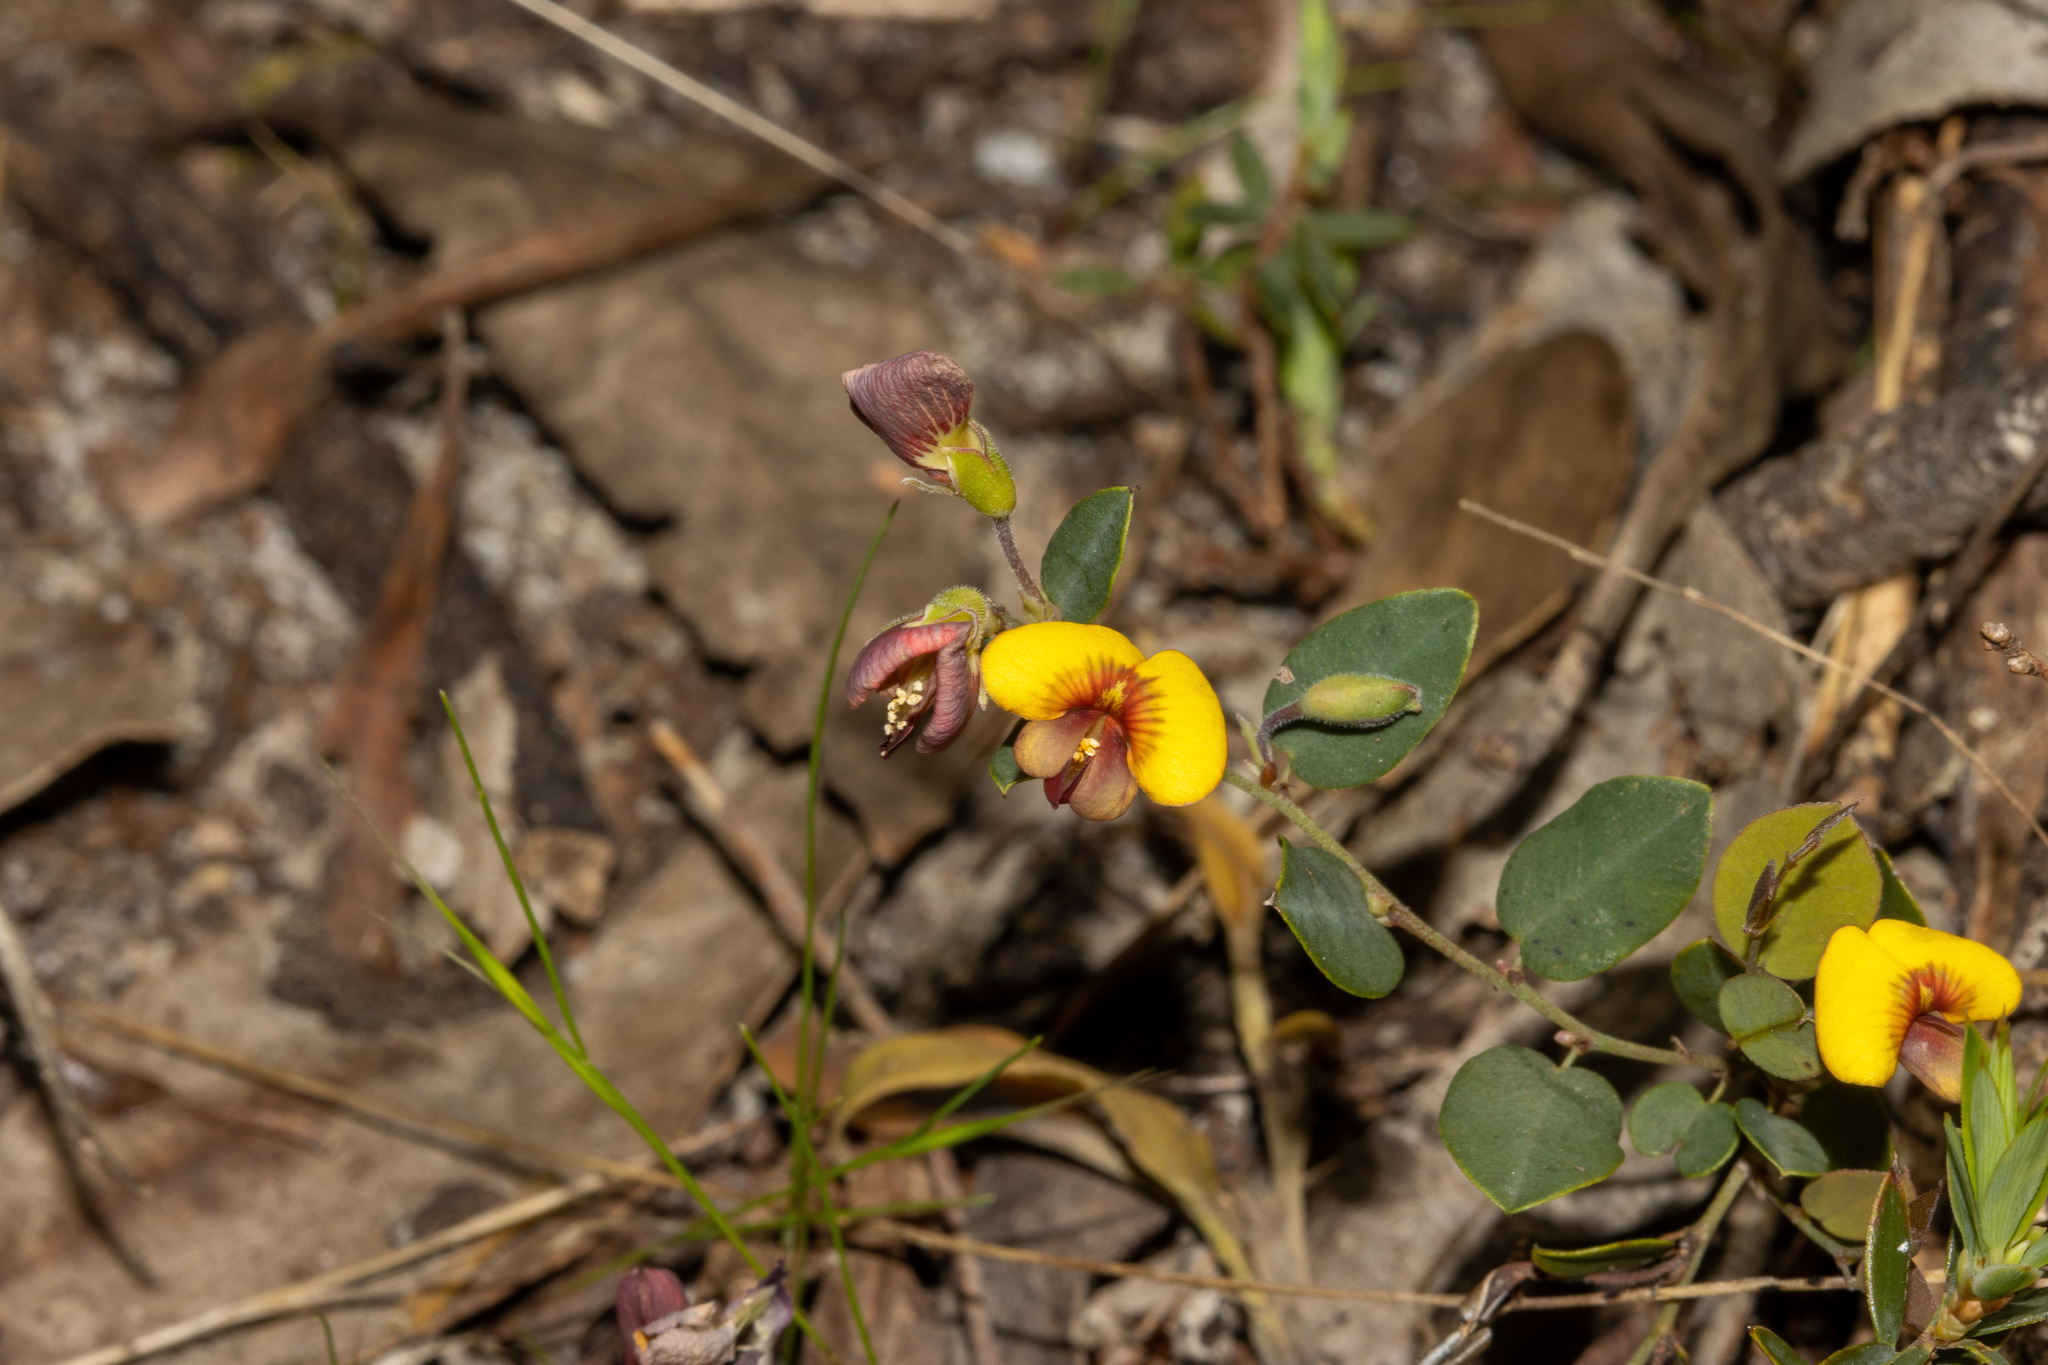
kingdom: Plantae
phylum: Tracheophyta
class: Magnoliopsida
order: Fabales
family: Fabaceae
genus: Bossiaea
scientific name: Bossiaea prostrata
